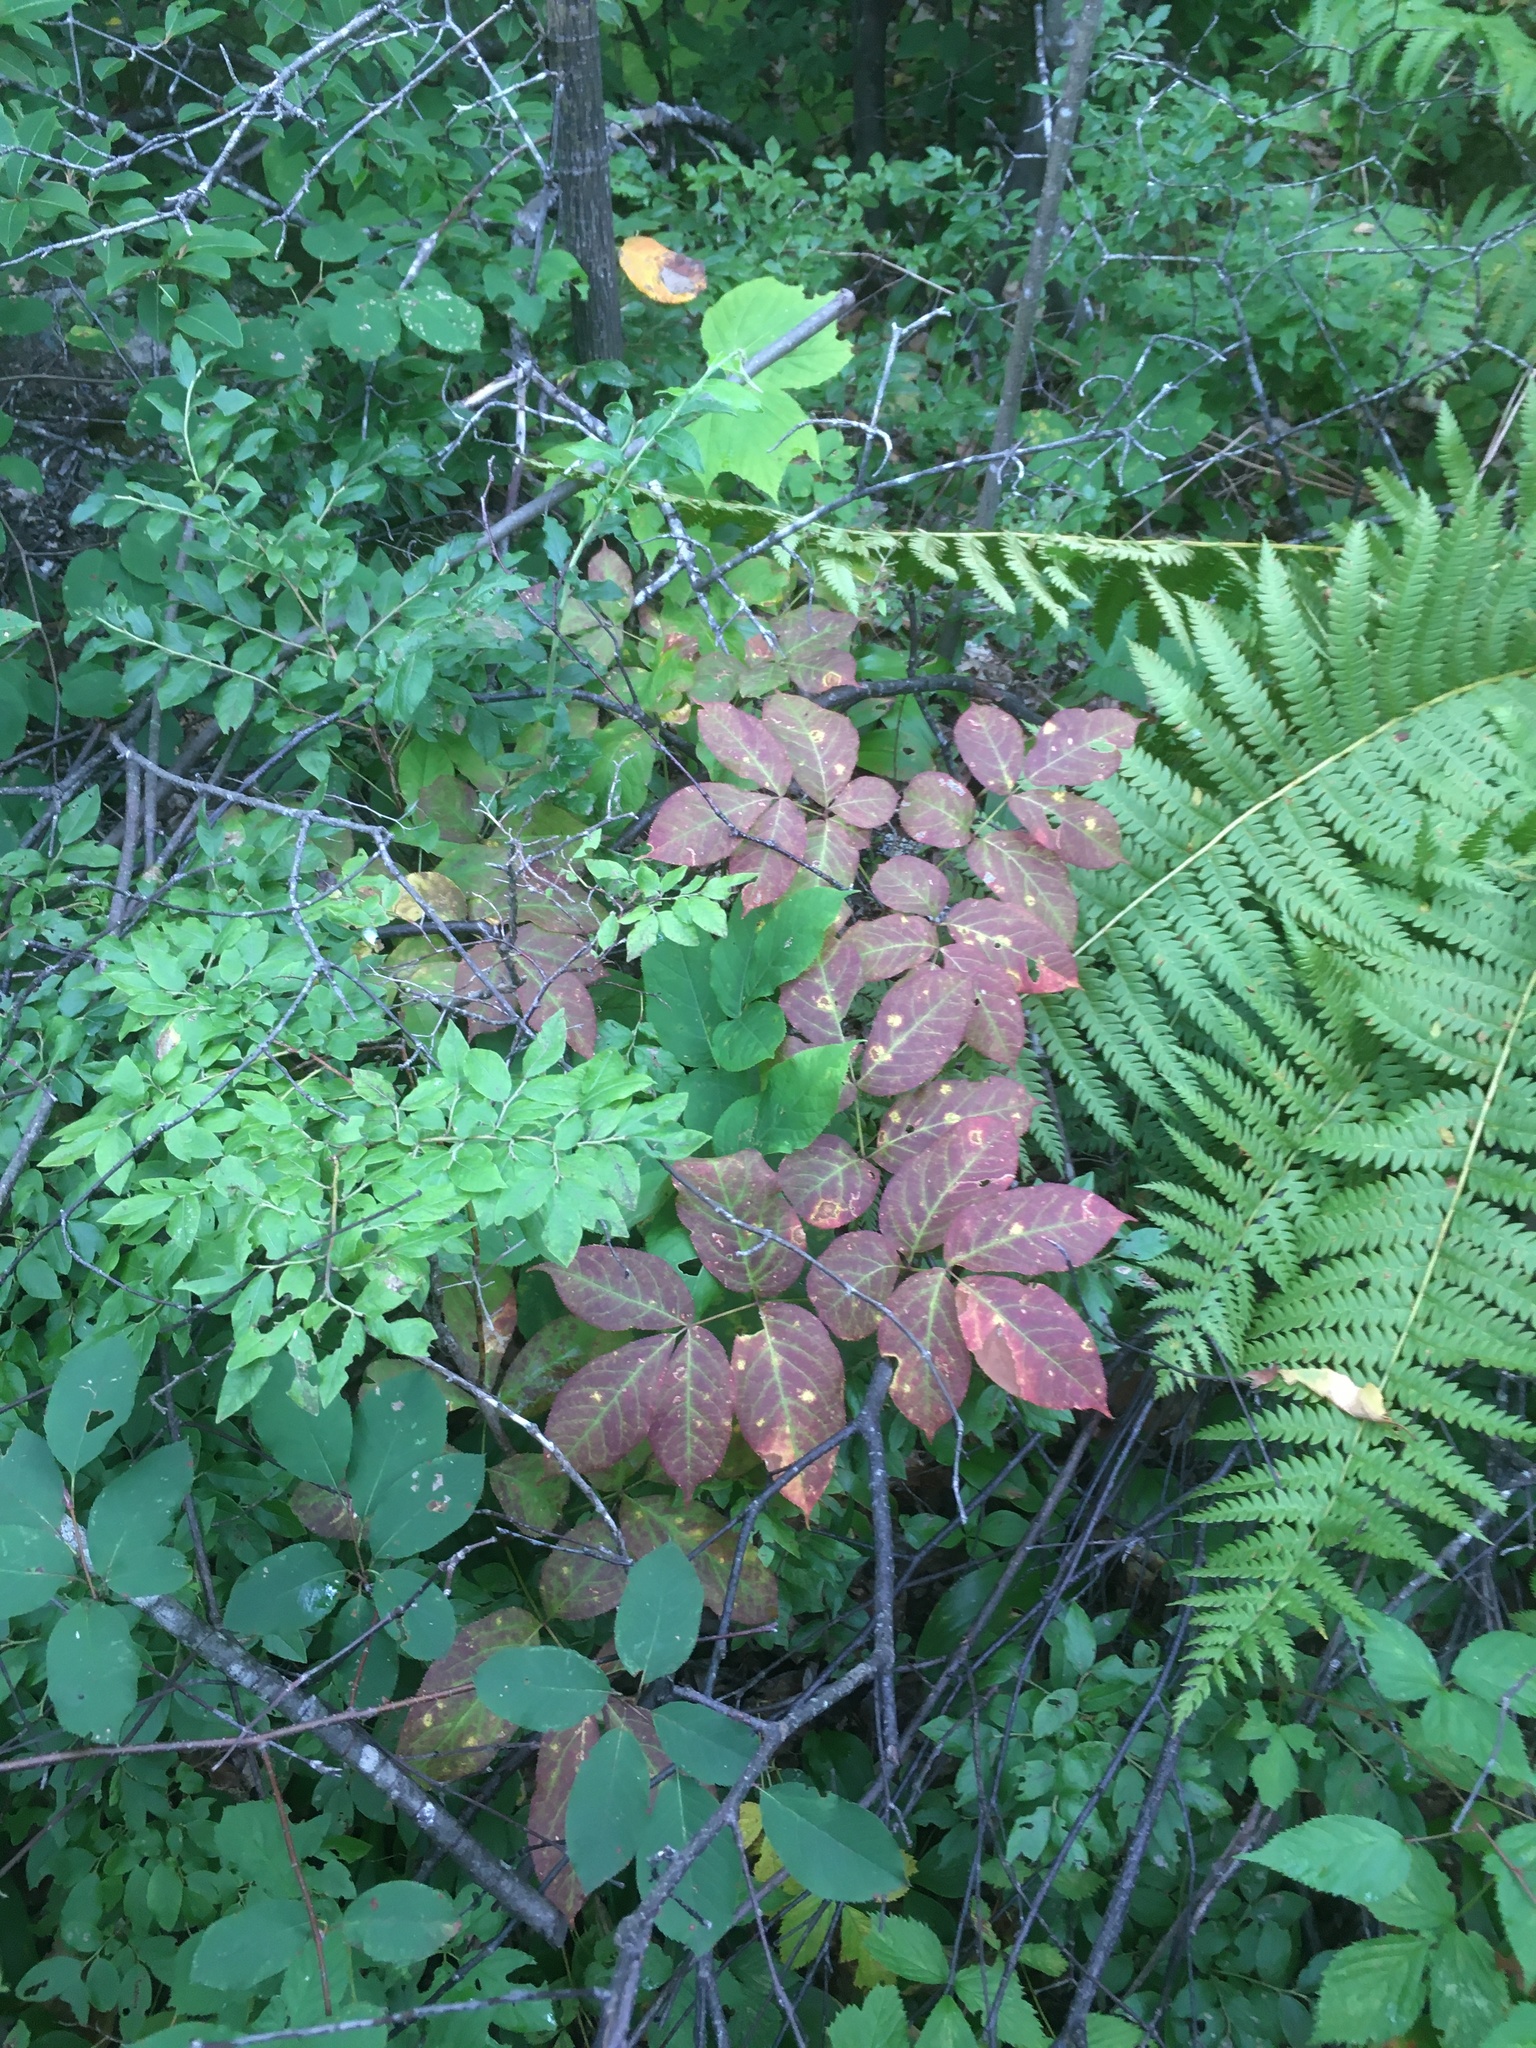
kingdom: Plantae
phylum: Tracheophyta
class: Magnoliopsida
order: Apiales
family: Araliaceae
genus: Aralia
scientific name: Aralia nudicaulis
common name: Wild sarsaparilla
